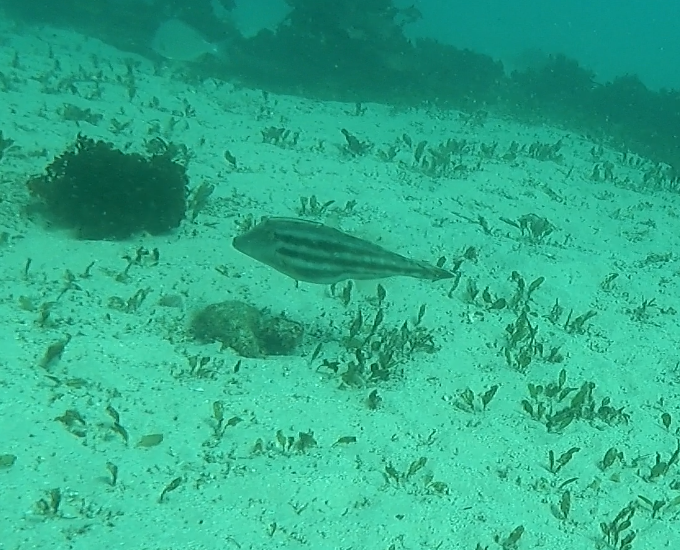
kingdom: Animalia
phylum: Chordata
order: Tetraodontiformes
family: Monacanthidae
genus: Meuschenia
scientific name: Meuschenia trachylepis
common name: Yellowfin leatherjacket
